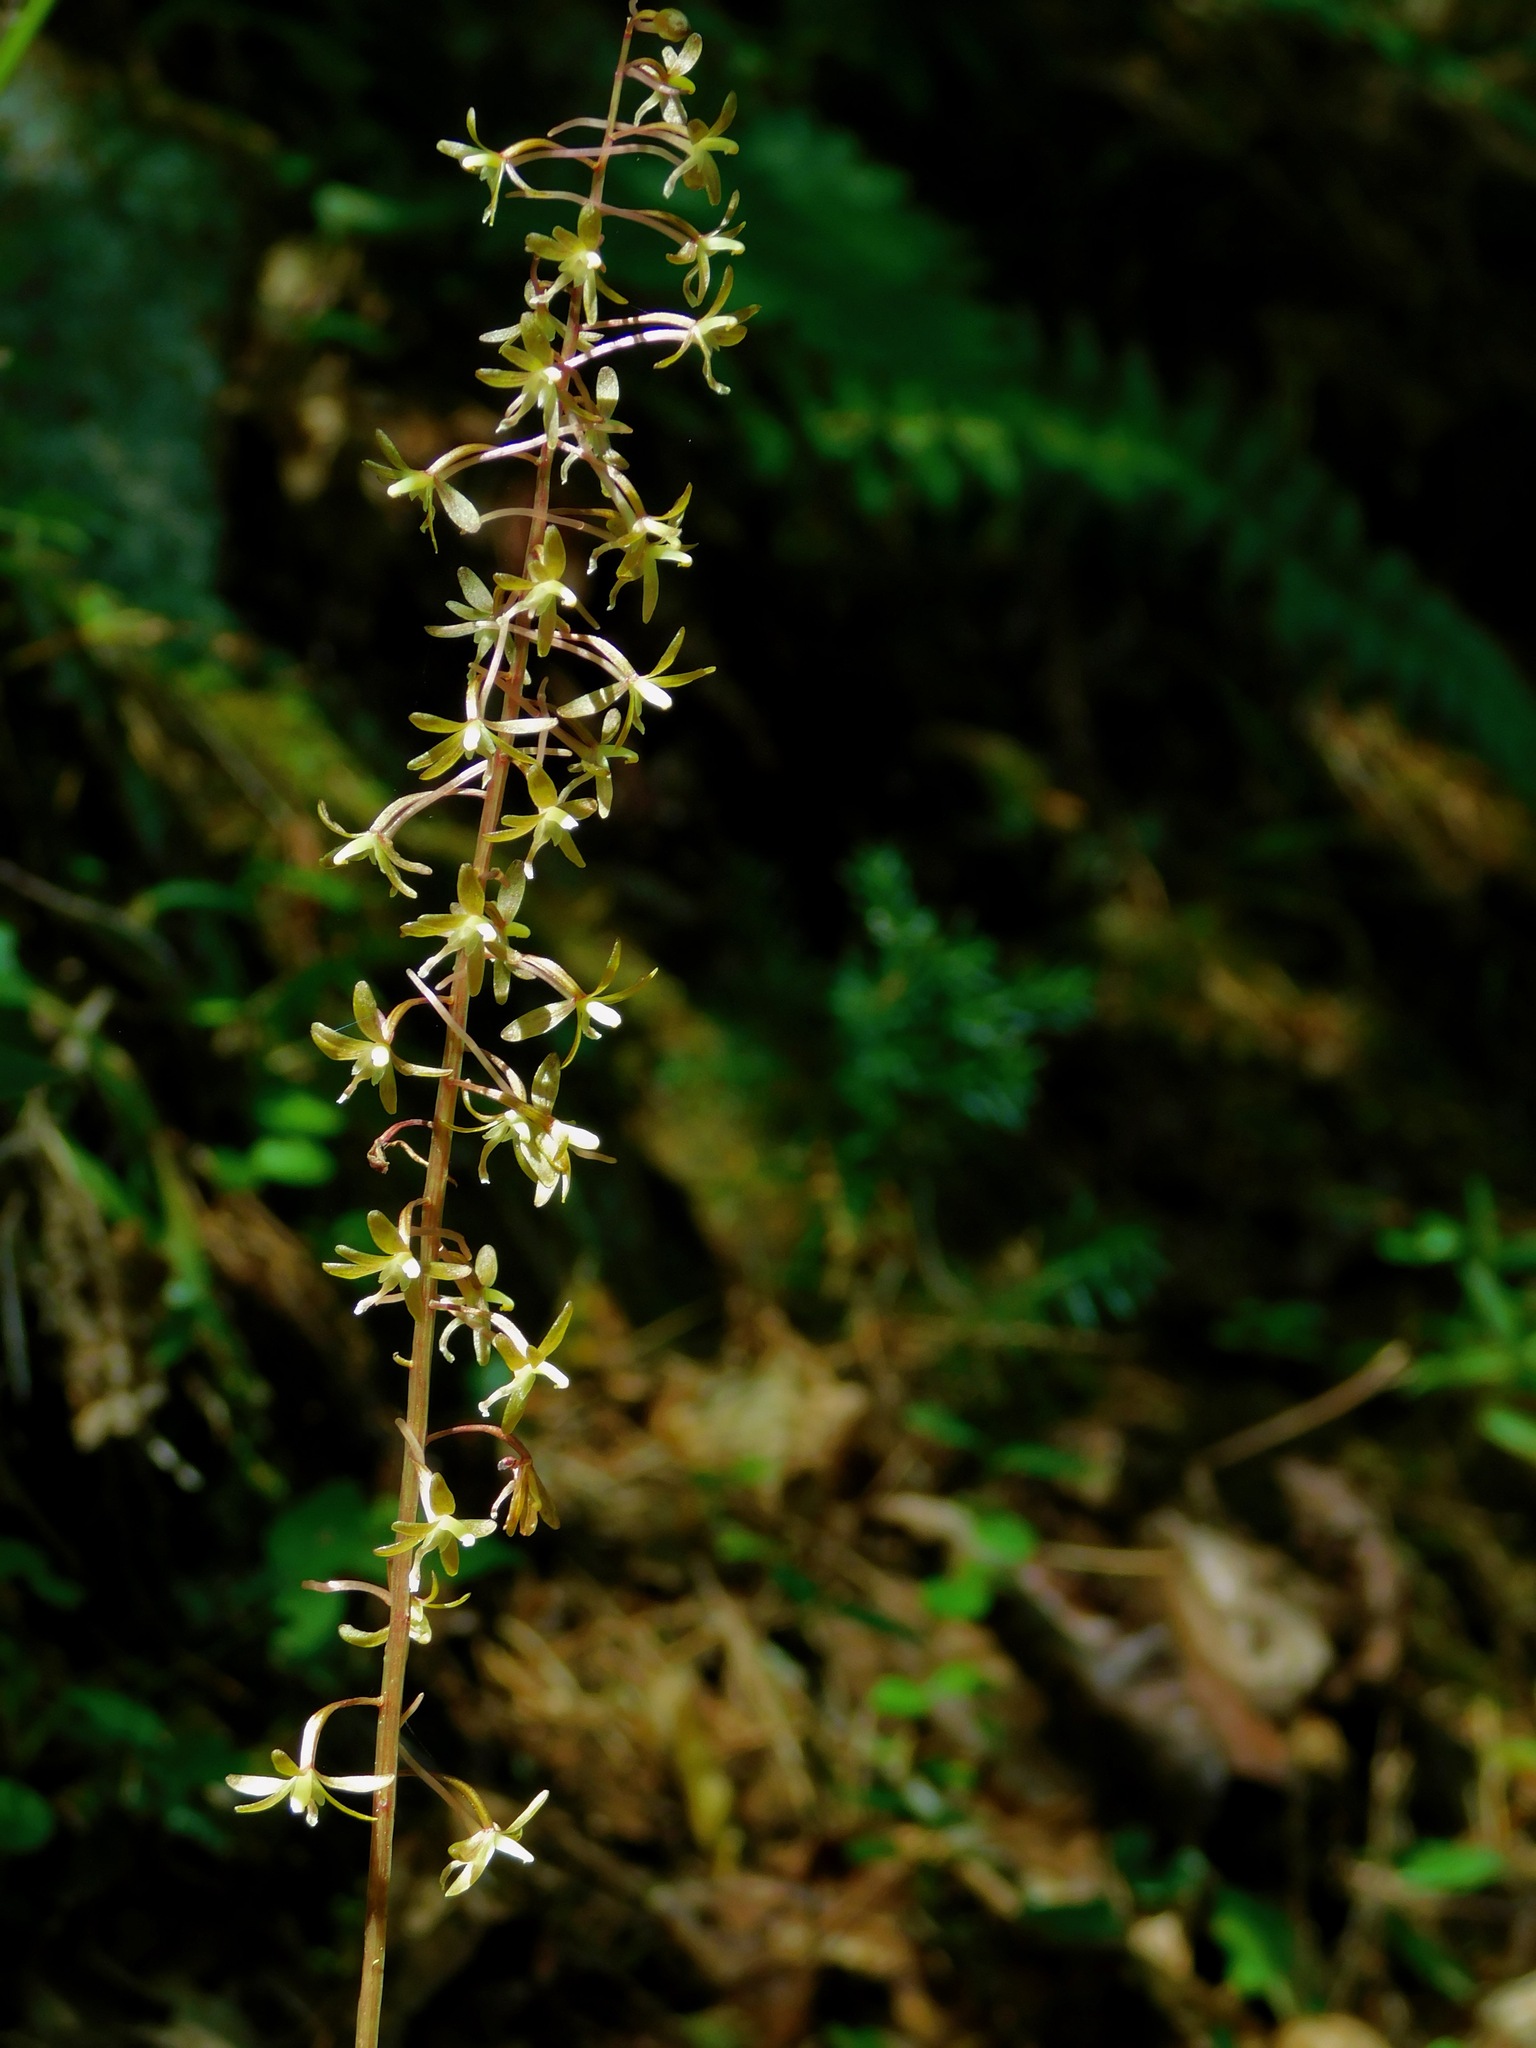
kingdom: Plantae
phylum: Tracheophyta
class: Liliopsida
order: Asparagales
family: Orchidaceae
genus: Tipularia
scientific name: Tipularia discolor
